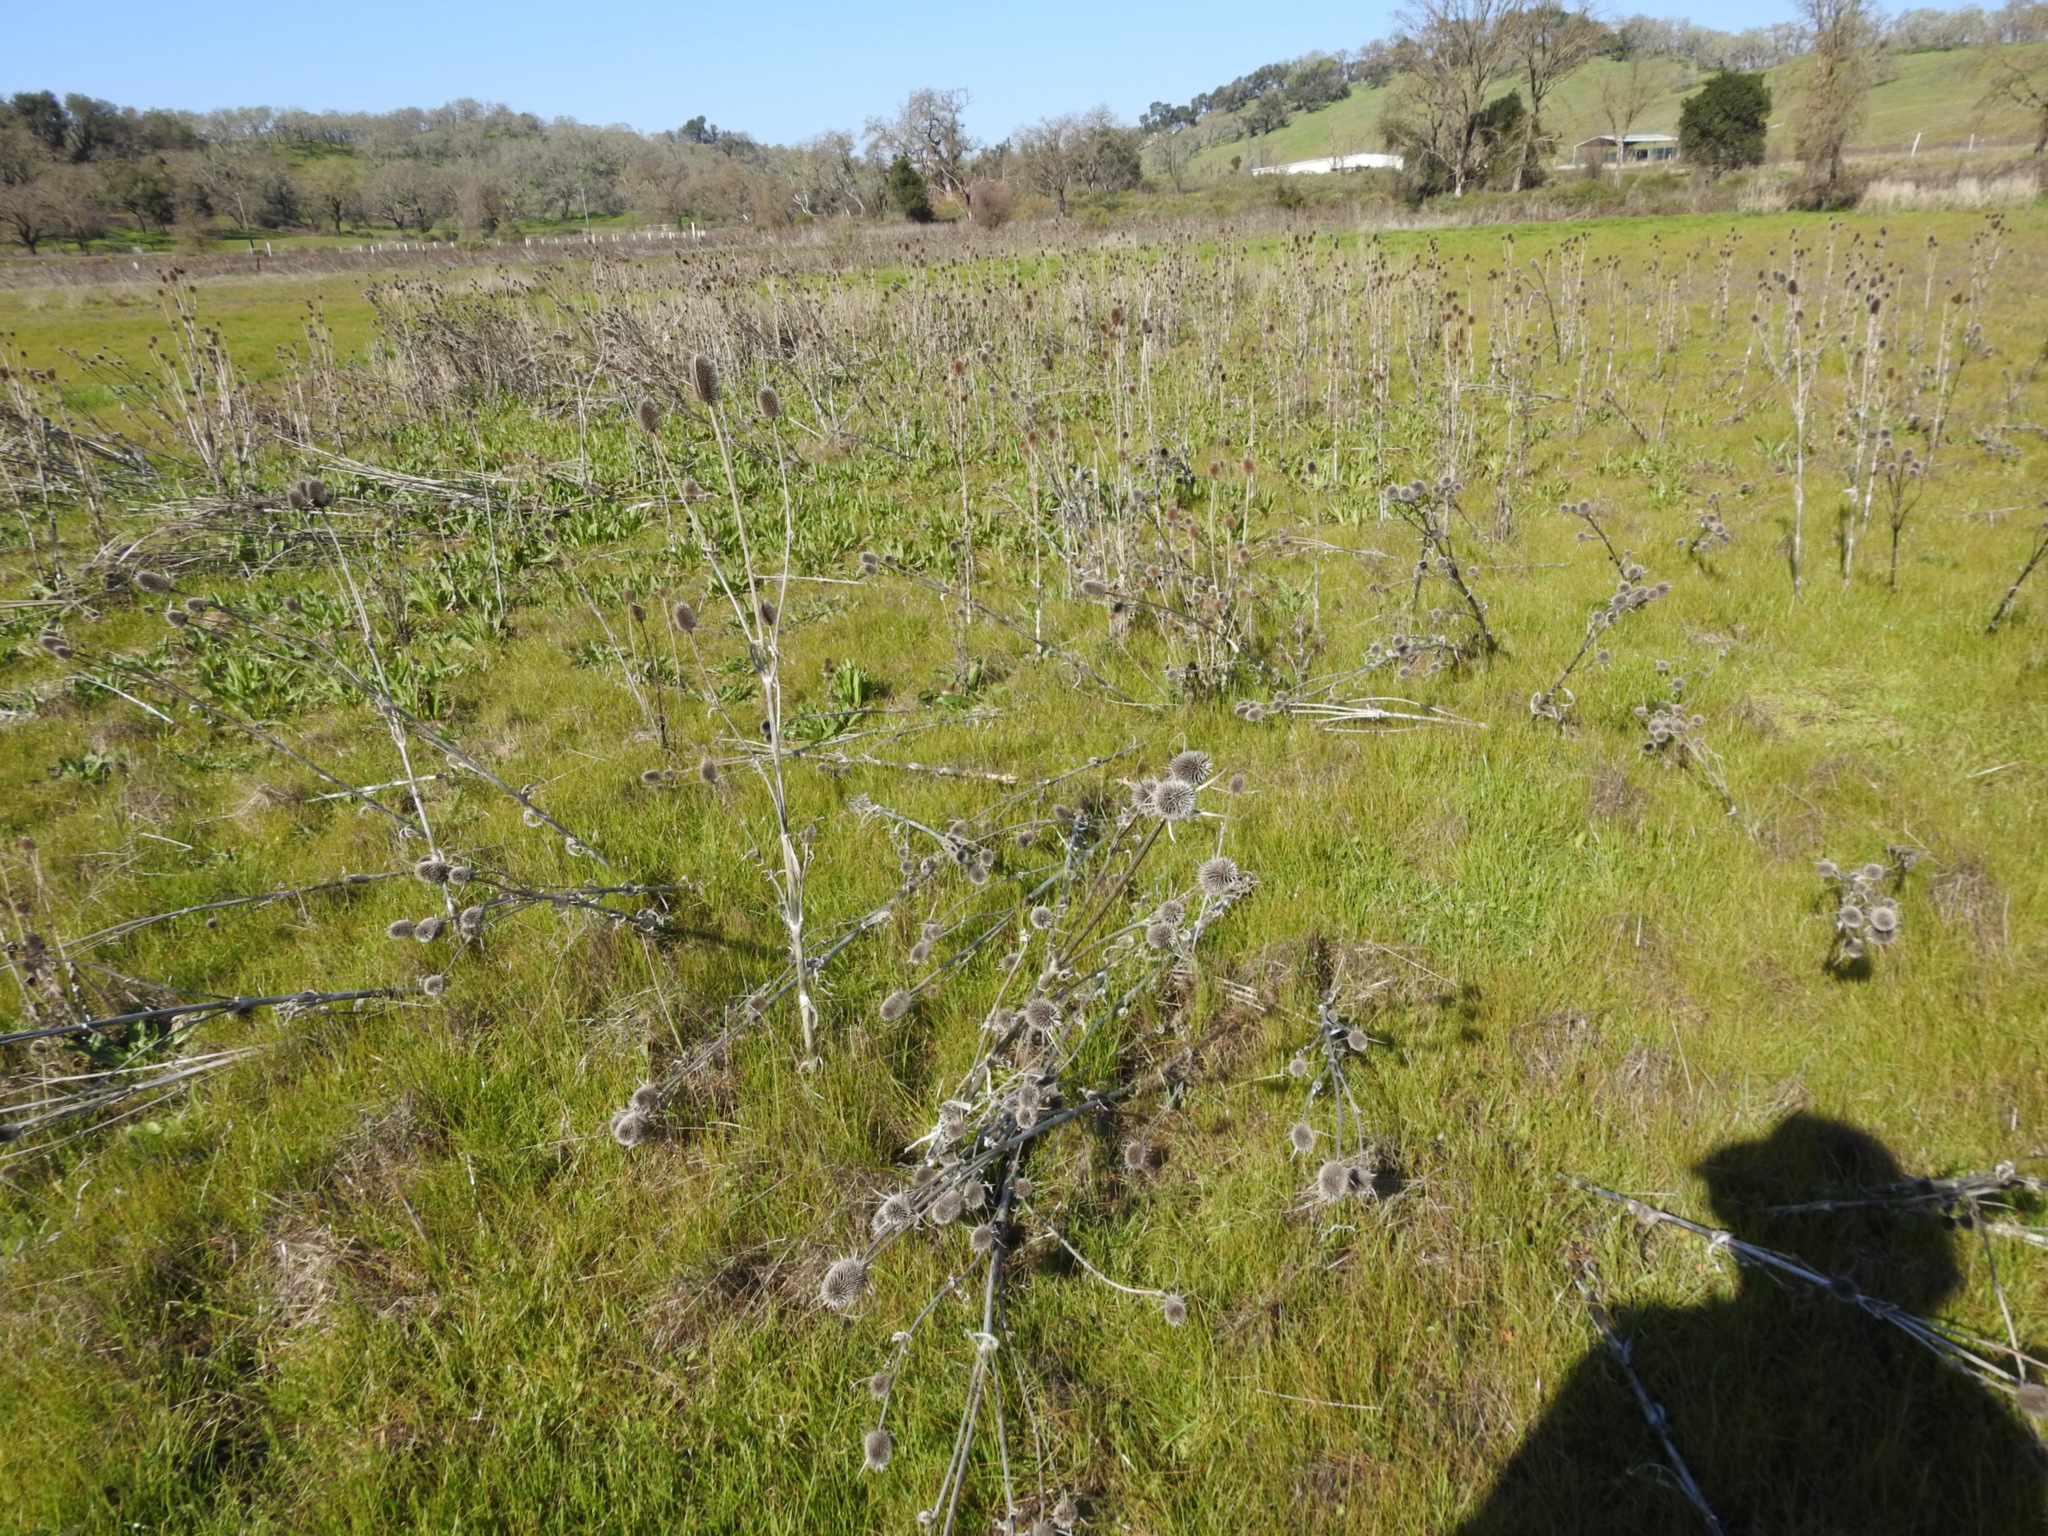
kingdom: Plantae
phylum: Tracheophyta
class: Magnoliopsida
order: Dipsacales
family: Caprifoliaceae
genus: Dipsacus
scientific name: Dipsacus sativus
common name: Fuller's teasel
